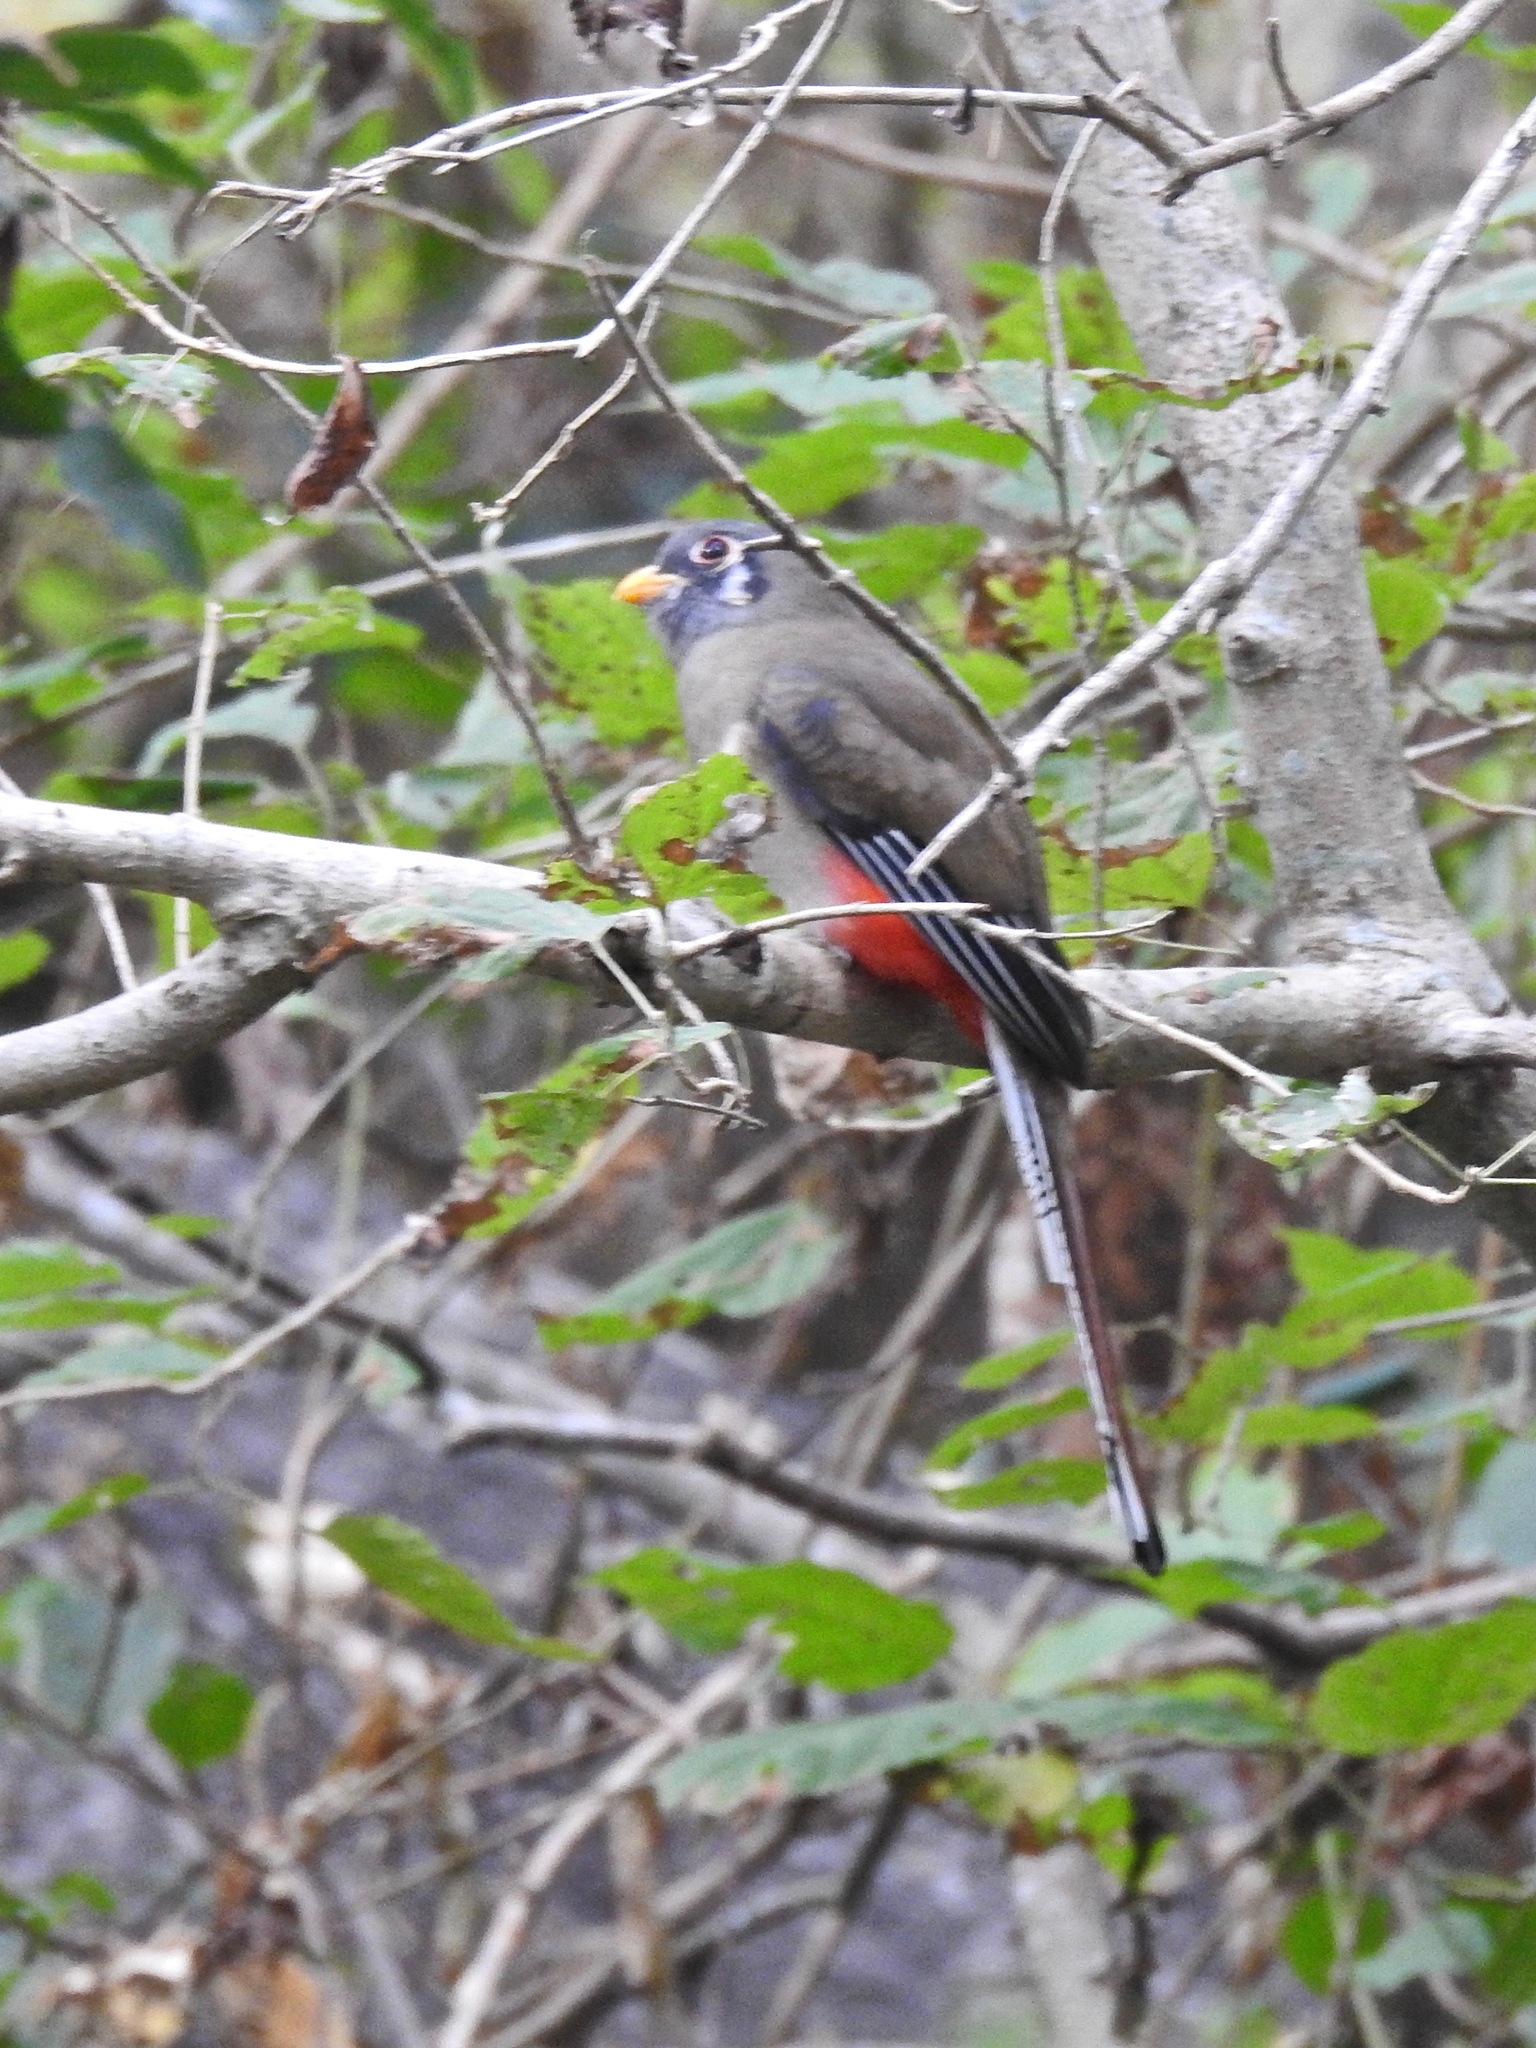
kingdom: Animalia
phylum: Chordata
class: Aves
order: Trogoniformes
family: Trogonidae
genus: Trogon
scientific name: Trogon elegans
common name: Elegant trogon
